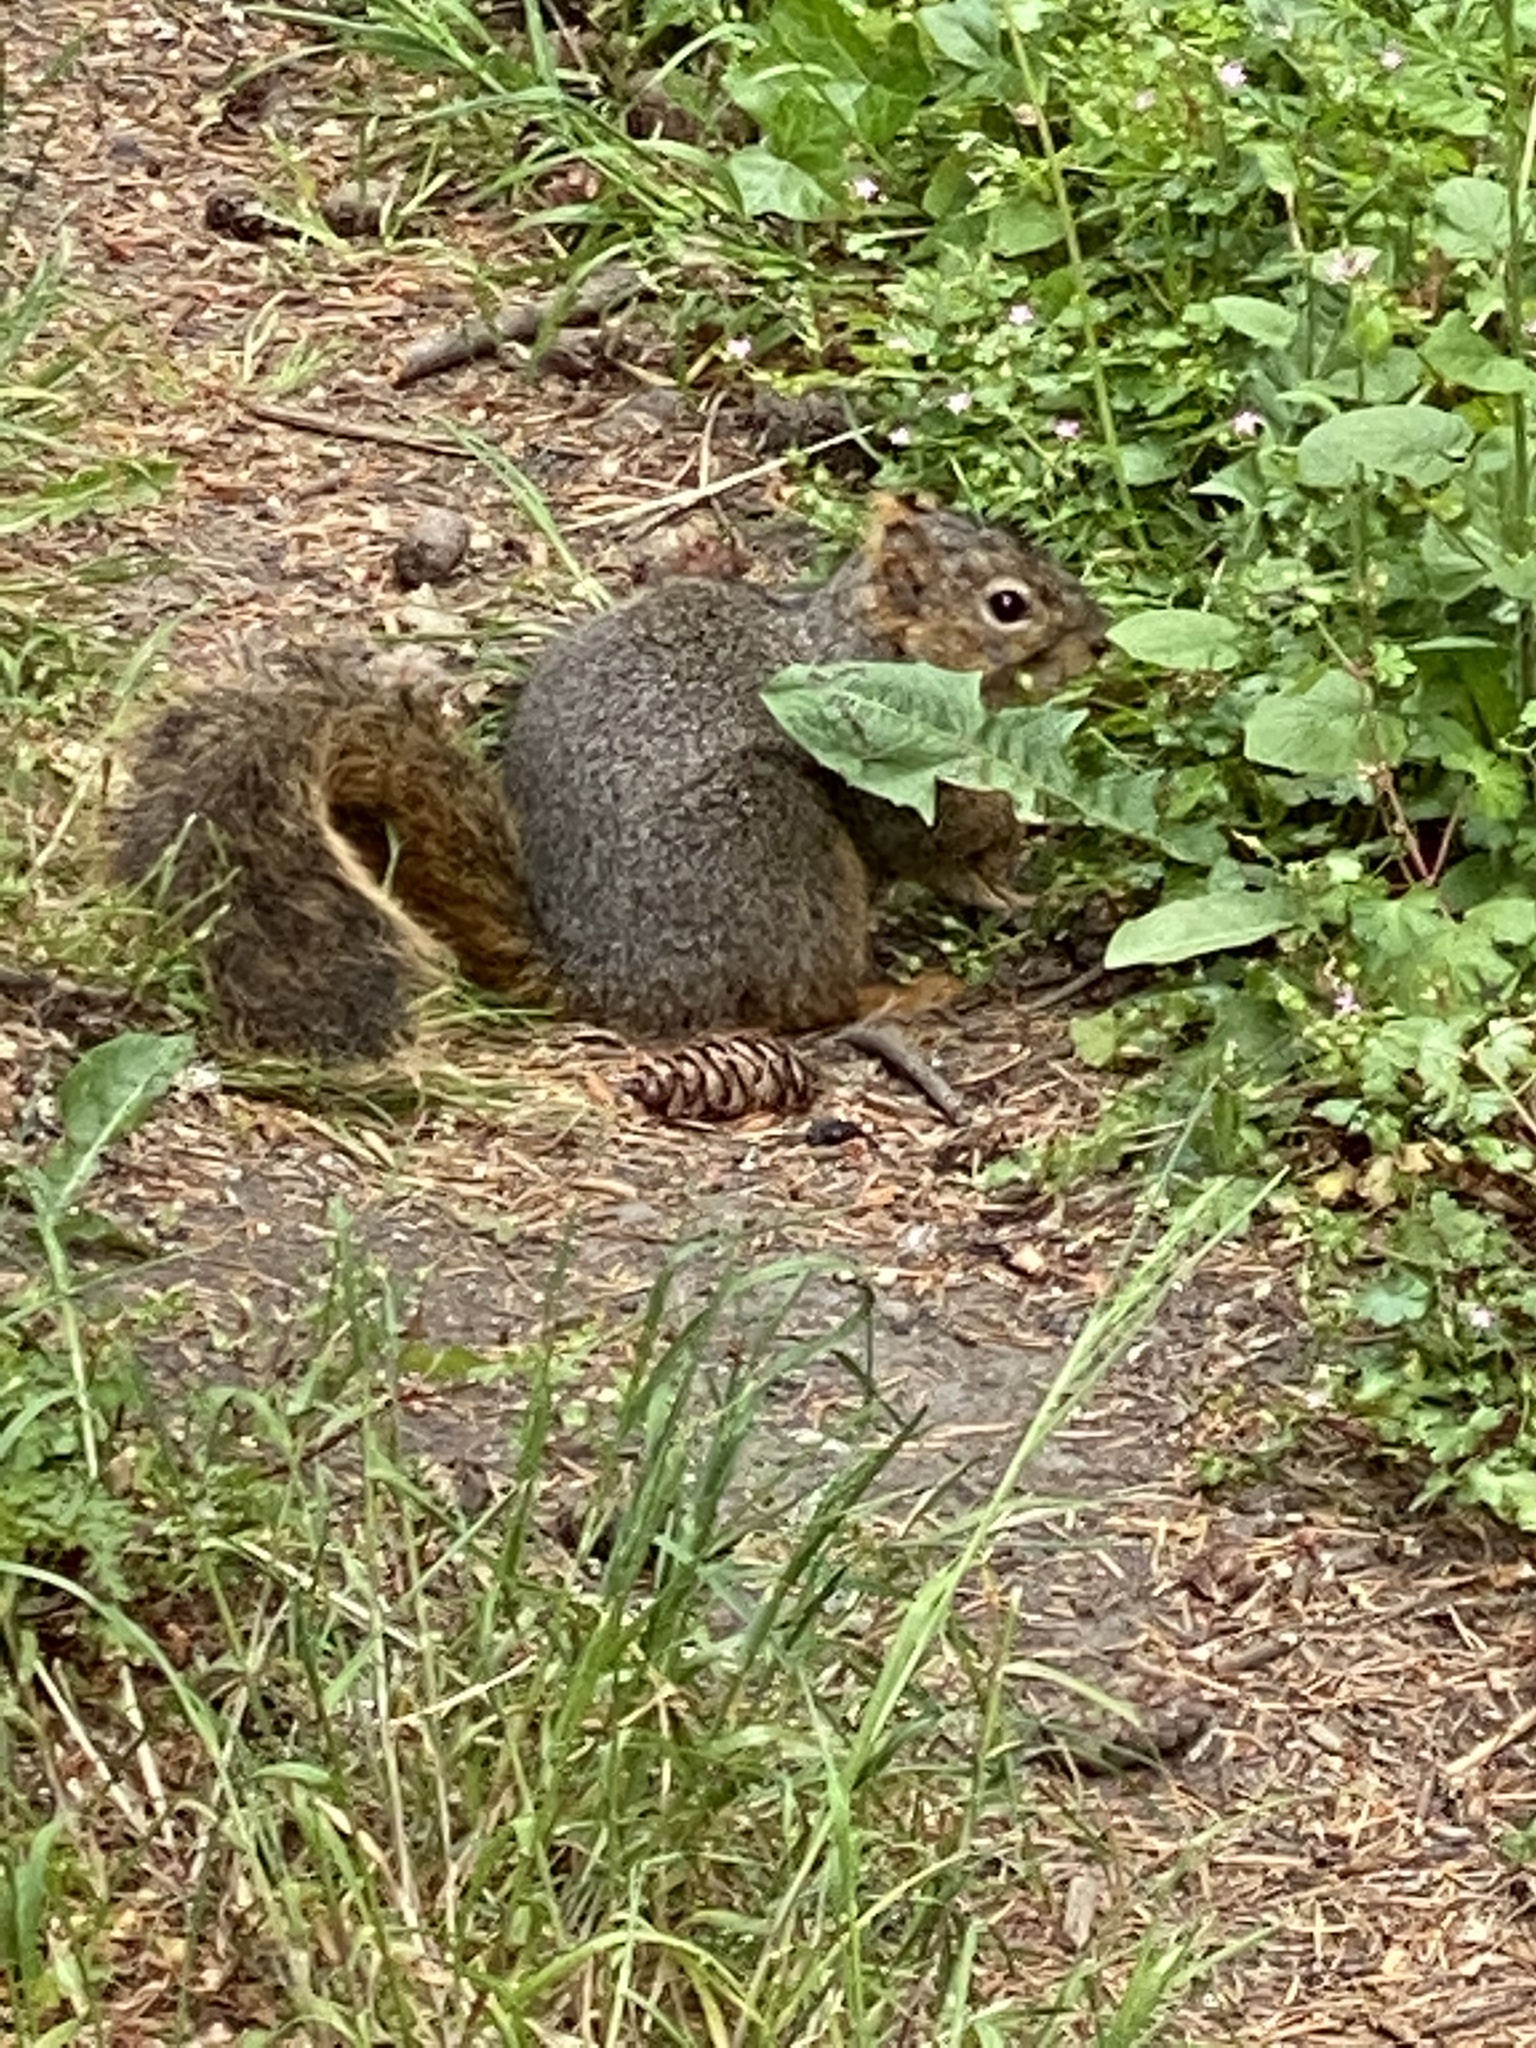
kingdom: Animalia
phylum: Chordata
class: Mammalia
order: Rodentia
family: Sciuridae
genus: Sciurus
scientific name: Sciurus niger
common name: Fox squirrel
